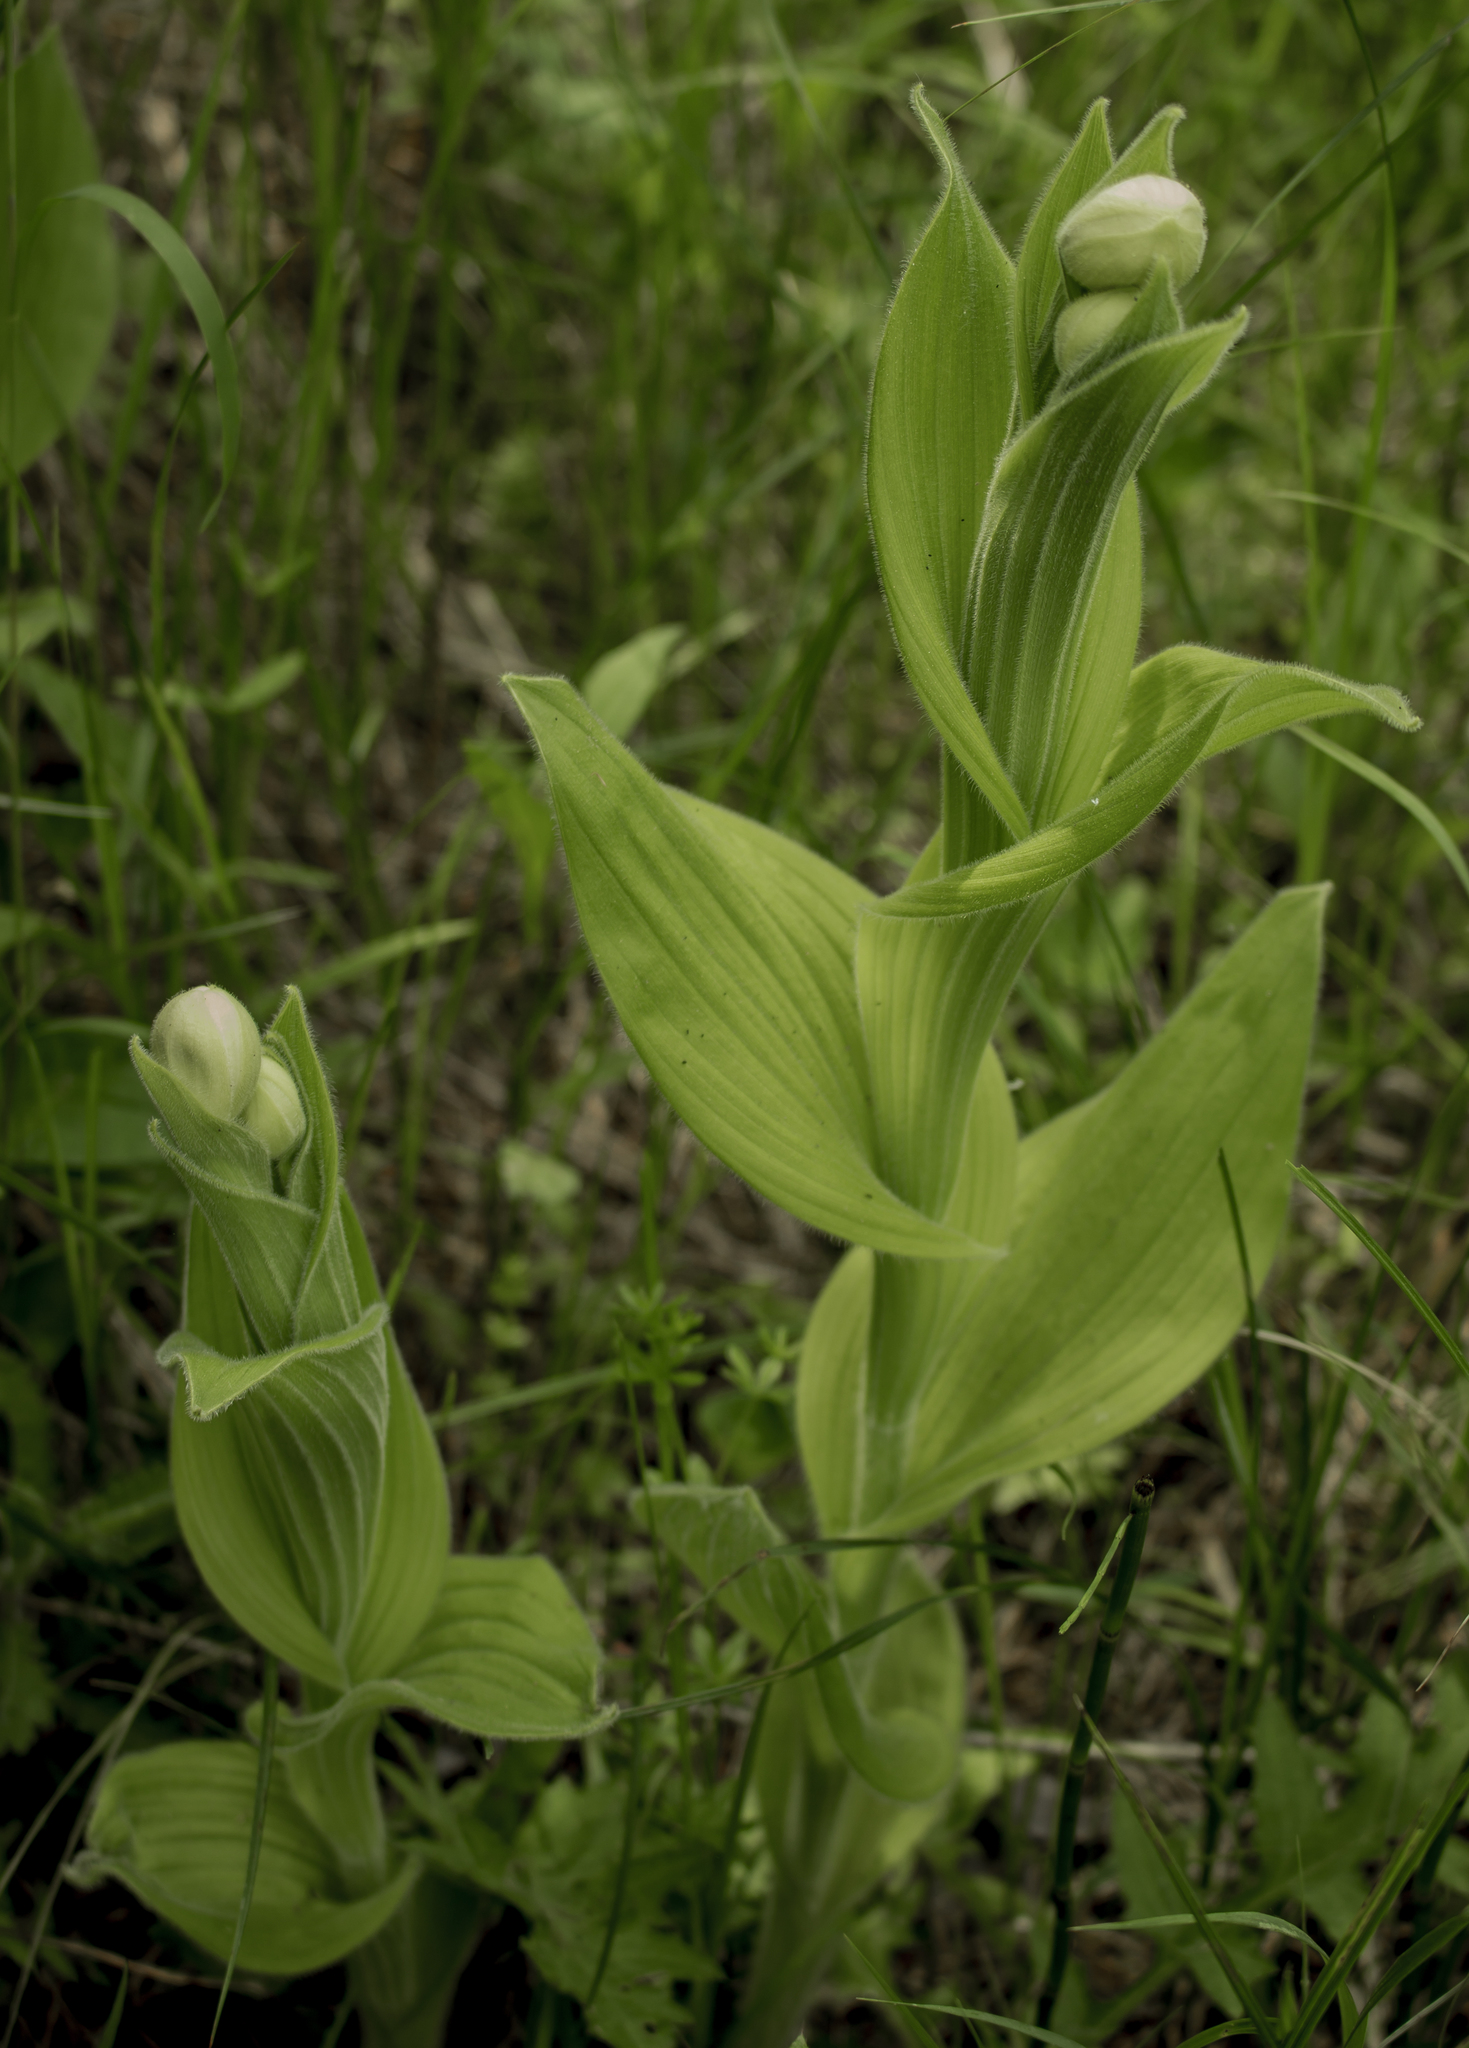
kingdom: Plantae
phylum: Tracheophyta
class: Liliopsida
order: Asparagales
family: Orchidaceae
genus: Cypripedium
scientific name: Cypripedium reginae
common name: Queen lady's-slipper
